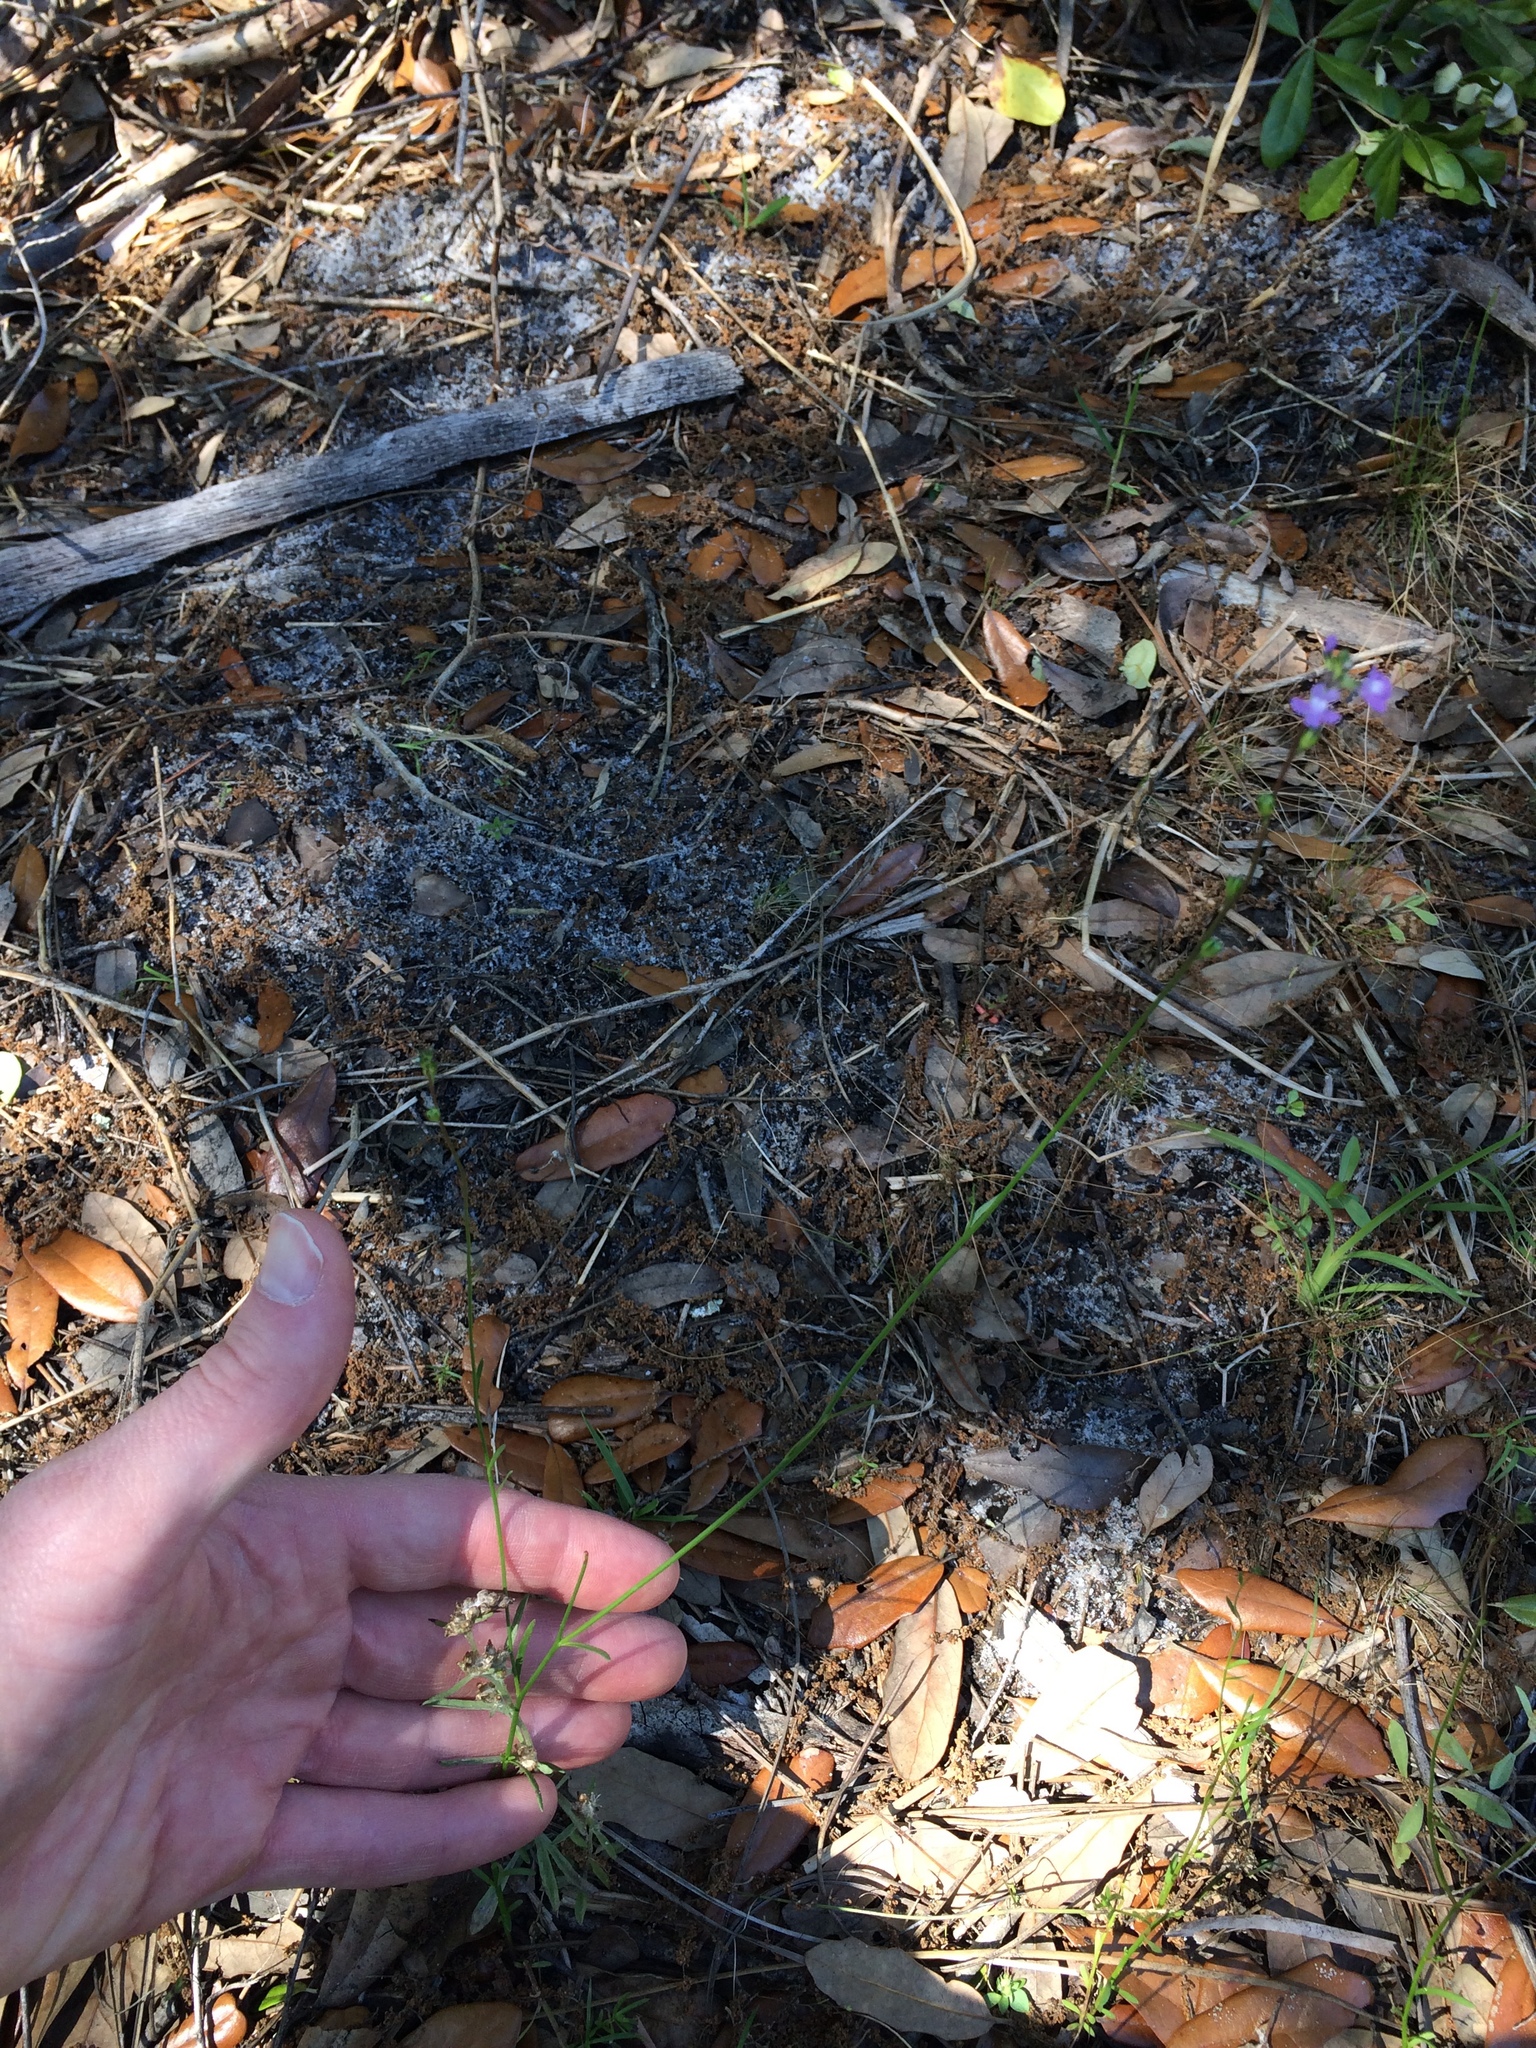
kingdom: Plantae
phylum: Tracheophyta
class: Magnoliopsida
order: Lamiales
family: Plantaginaceae
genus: Nuttallanthus
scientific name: Nuttallanthus canadensis
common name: Blue toadflax
